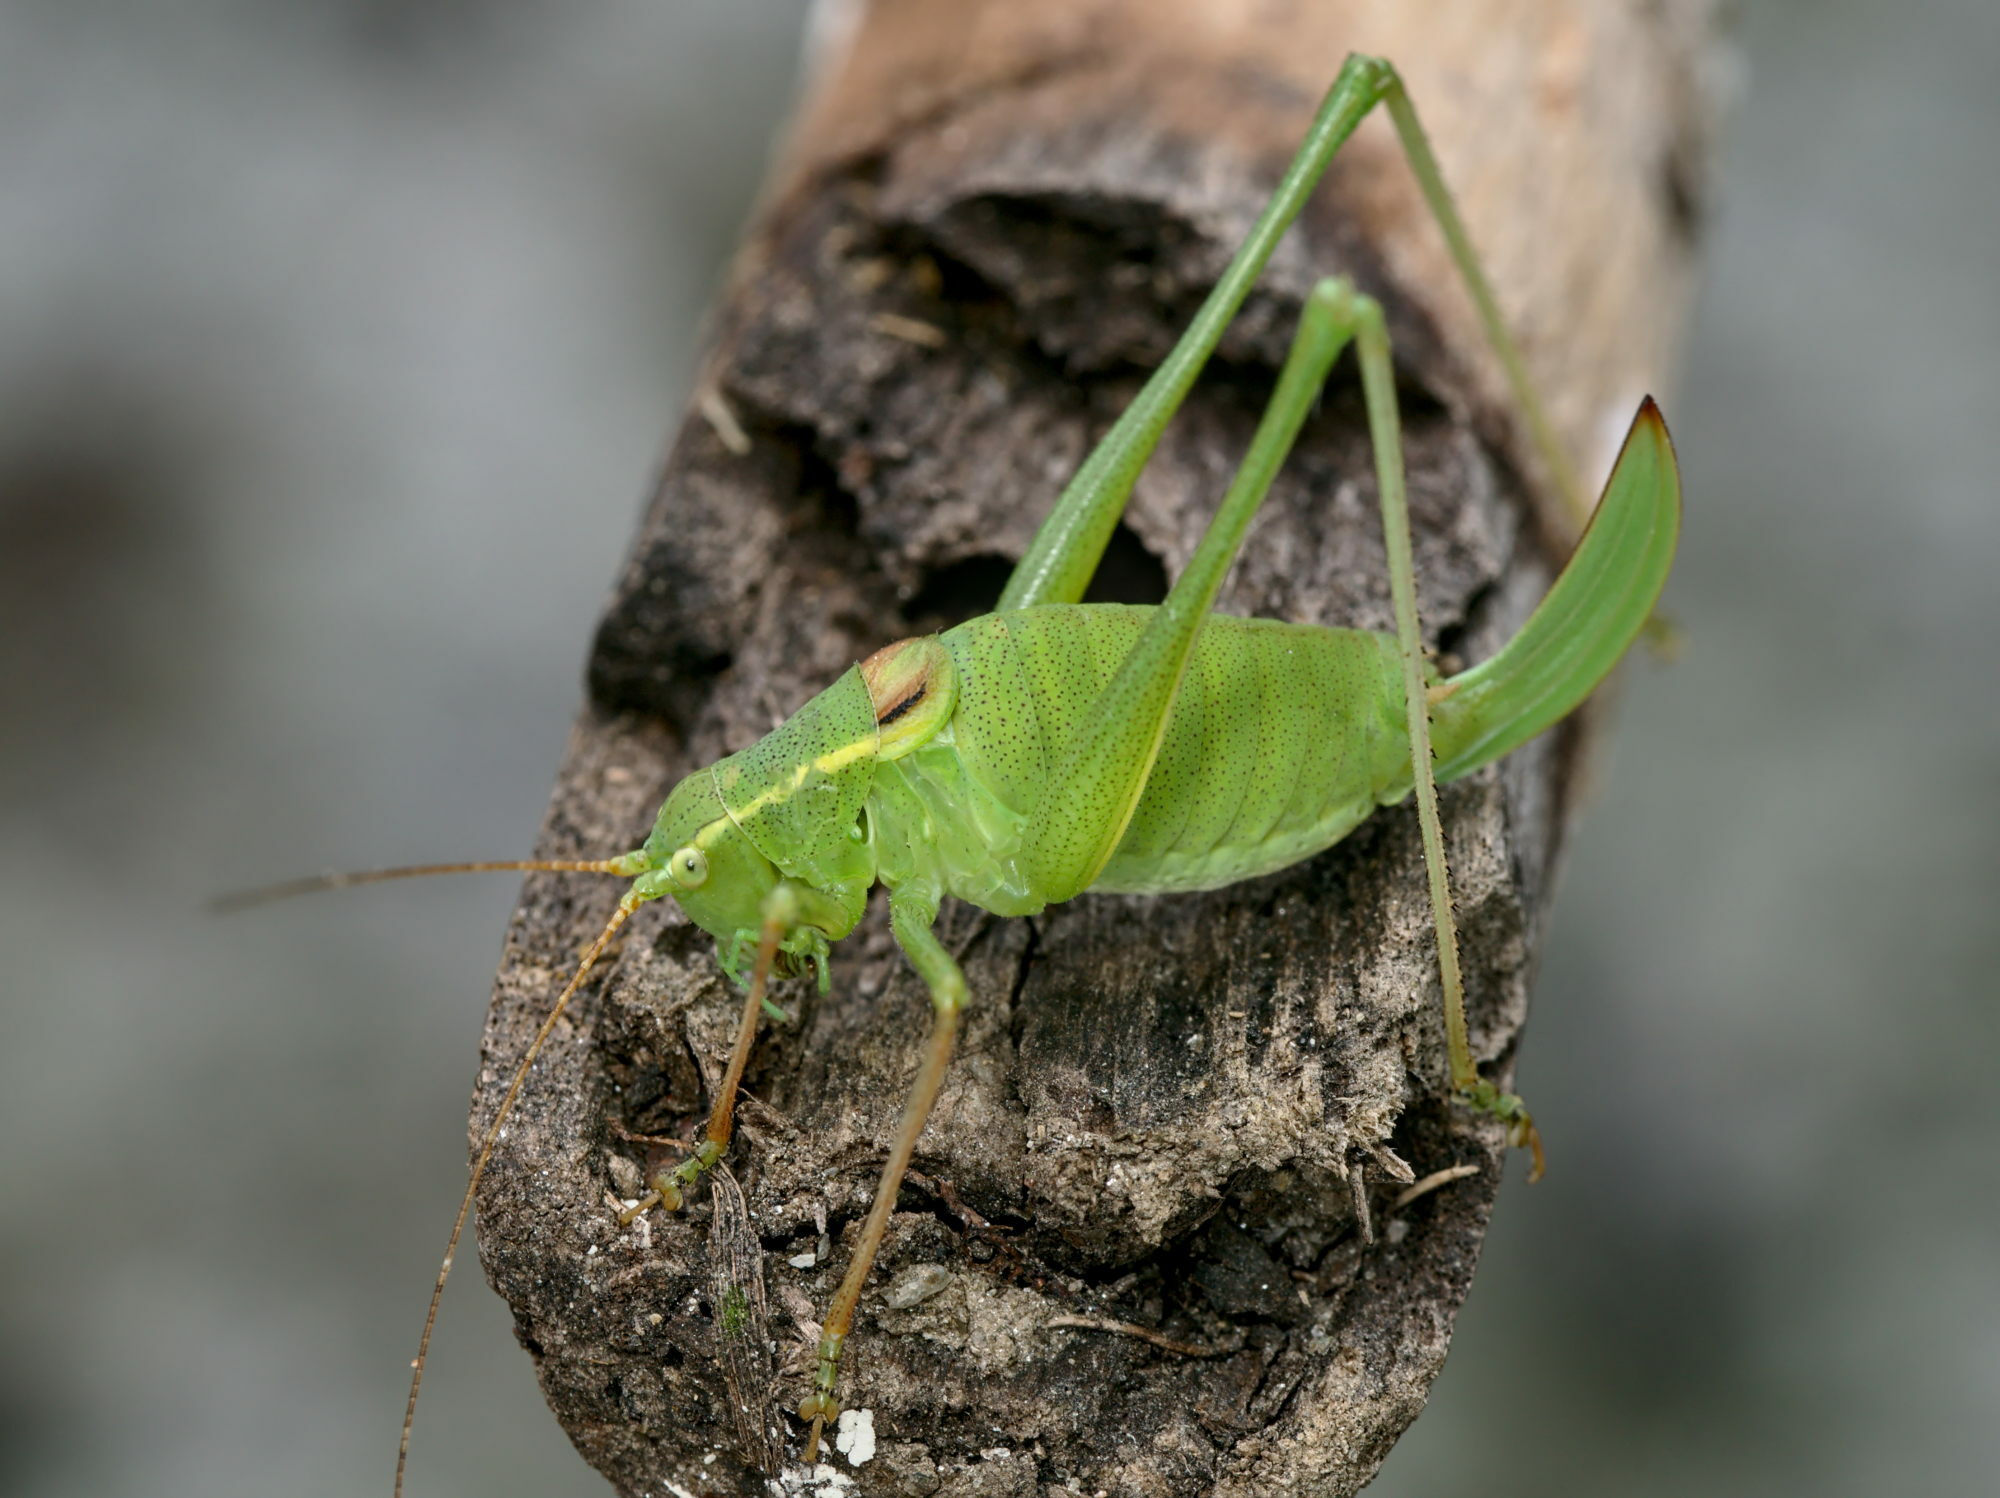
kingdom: Animalia
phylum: Arthropoda
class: Insecta
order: Orthoptera
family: Tettigoniidae
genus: Leptophyes
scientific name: Leptophyes laticauda
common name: Long-tailed speckled bush-cricket
